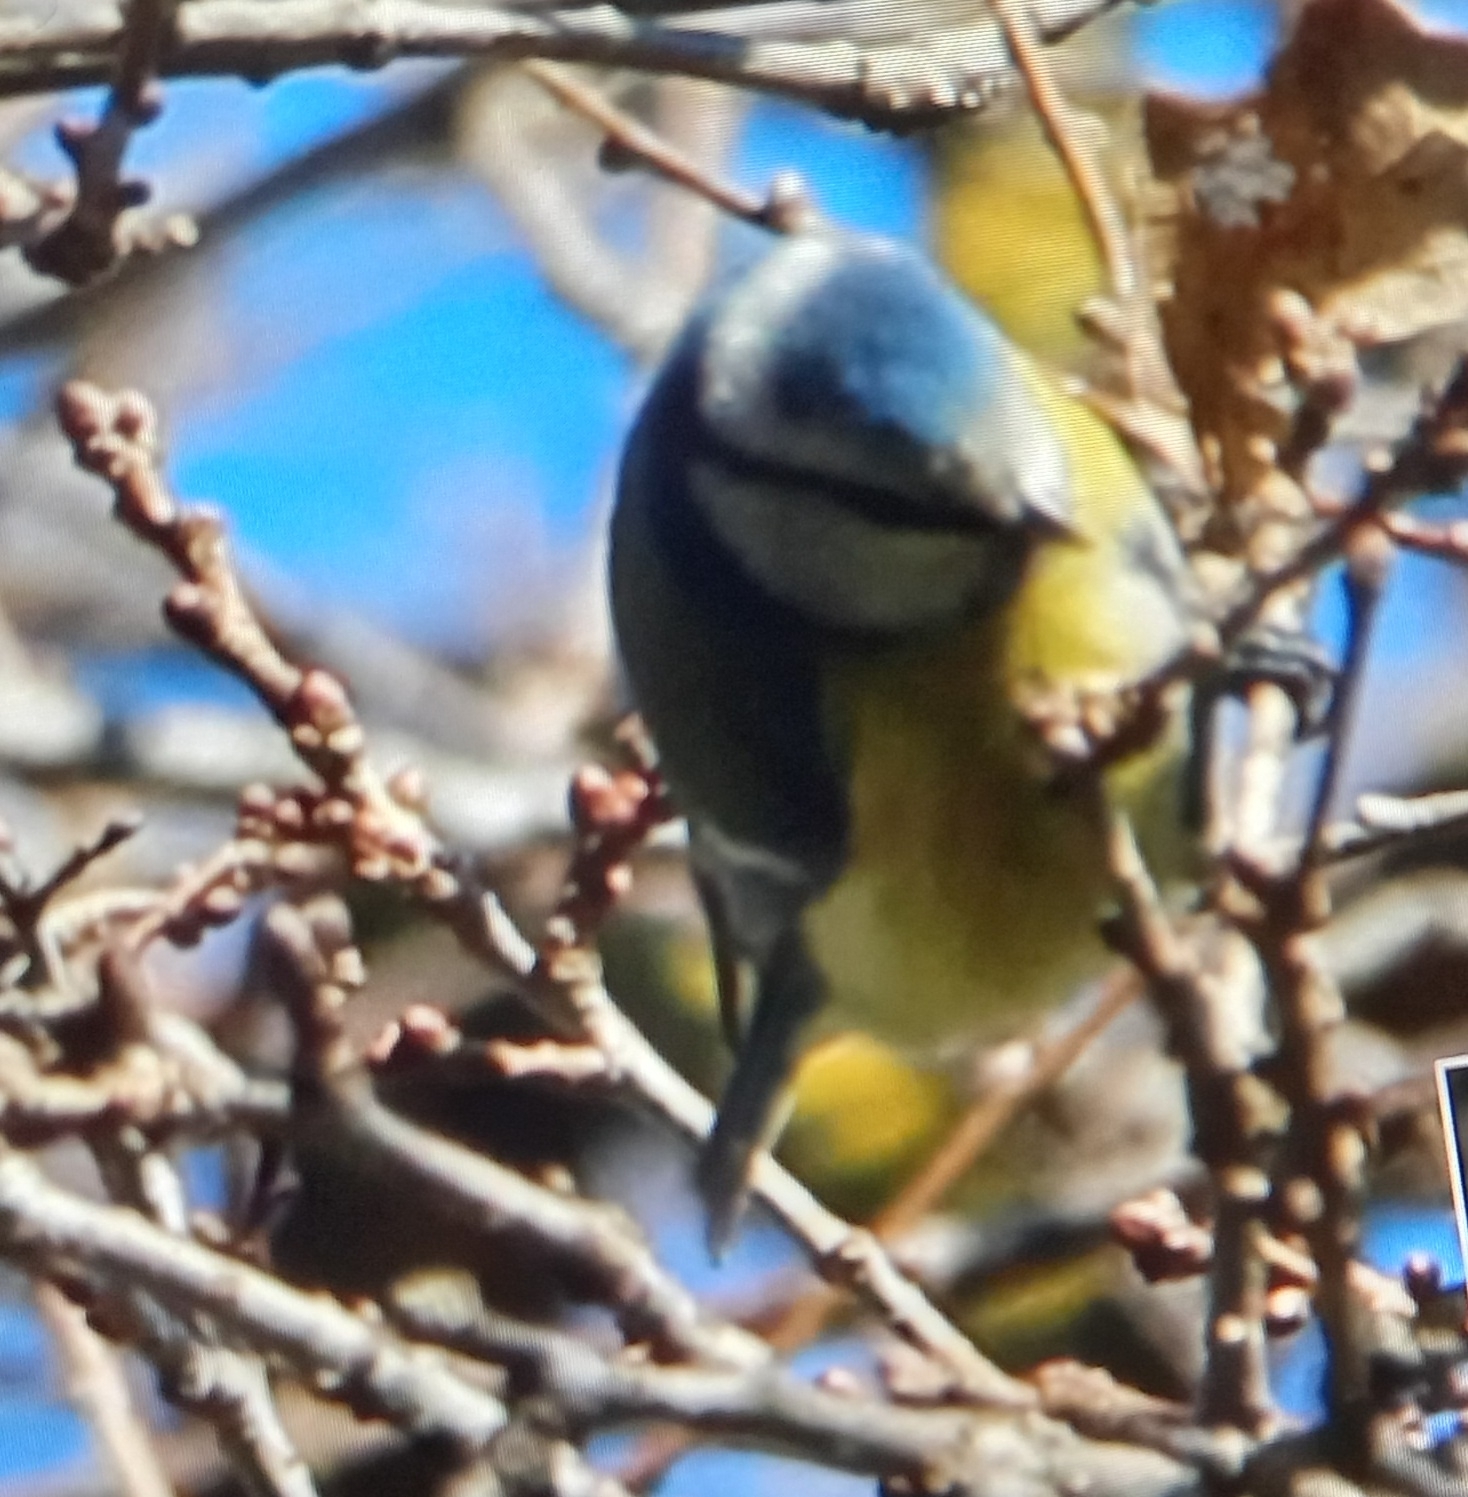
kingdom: Animalia
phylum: Chordata
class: Aves
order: Passeriformes
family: Paridae
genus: Cyanistes
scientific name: Cyanistes caeruleus
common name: Eurasian blue tit
